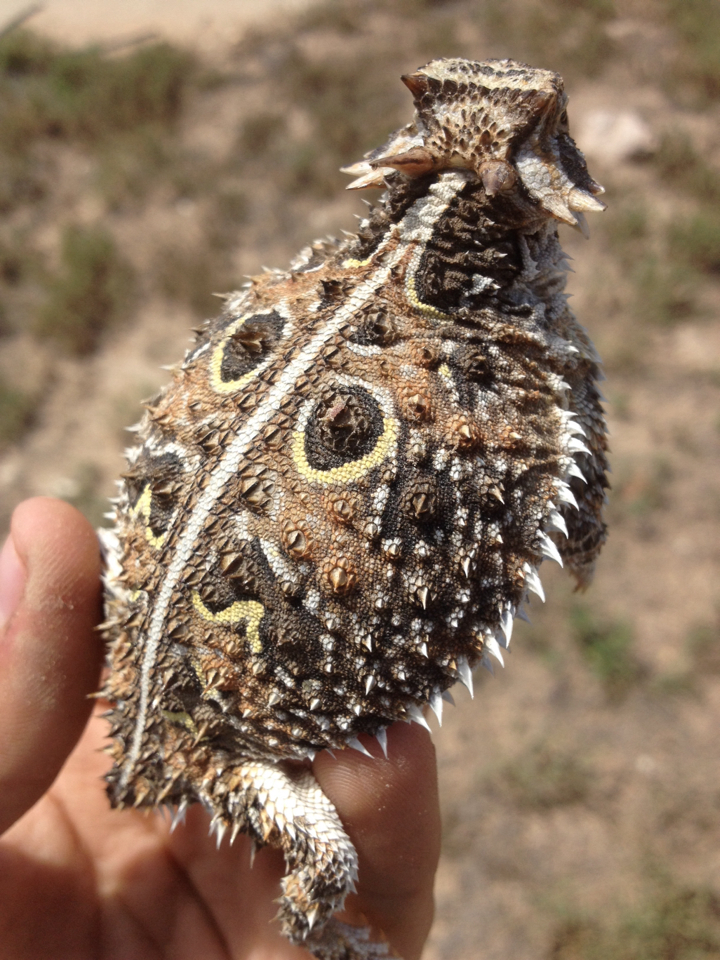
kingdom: Animalia
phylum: Chordata
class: Squamata
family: Phrynosomatidae
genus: Phrynosoma
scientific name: Phrynosoma cornutum
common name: Texas horned lizard
